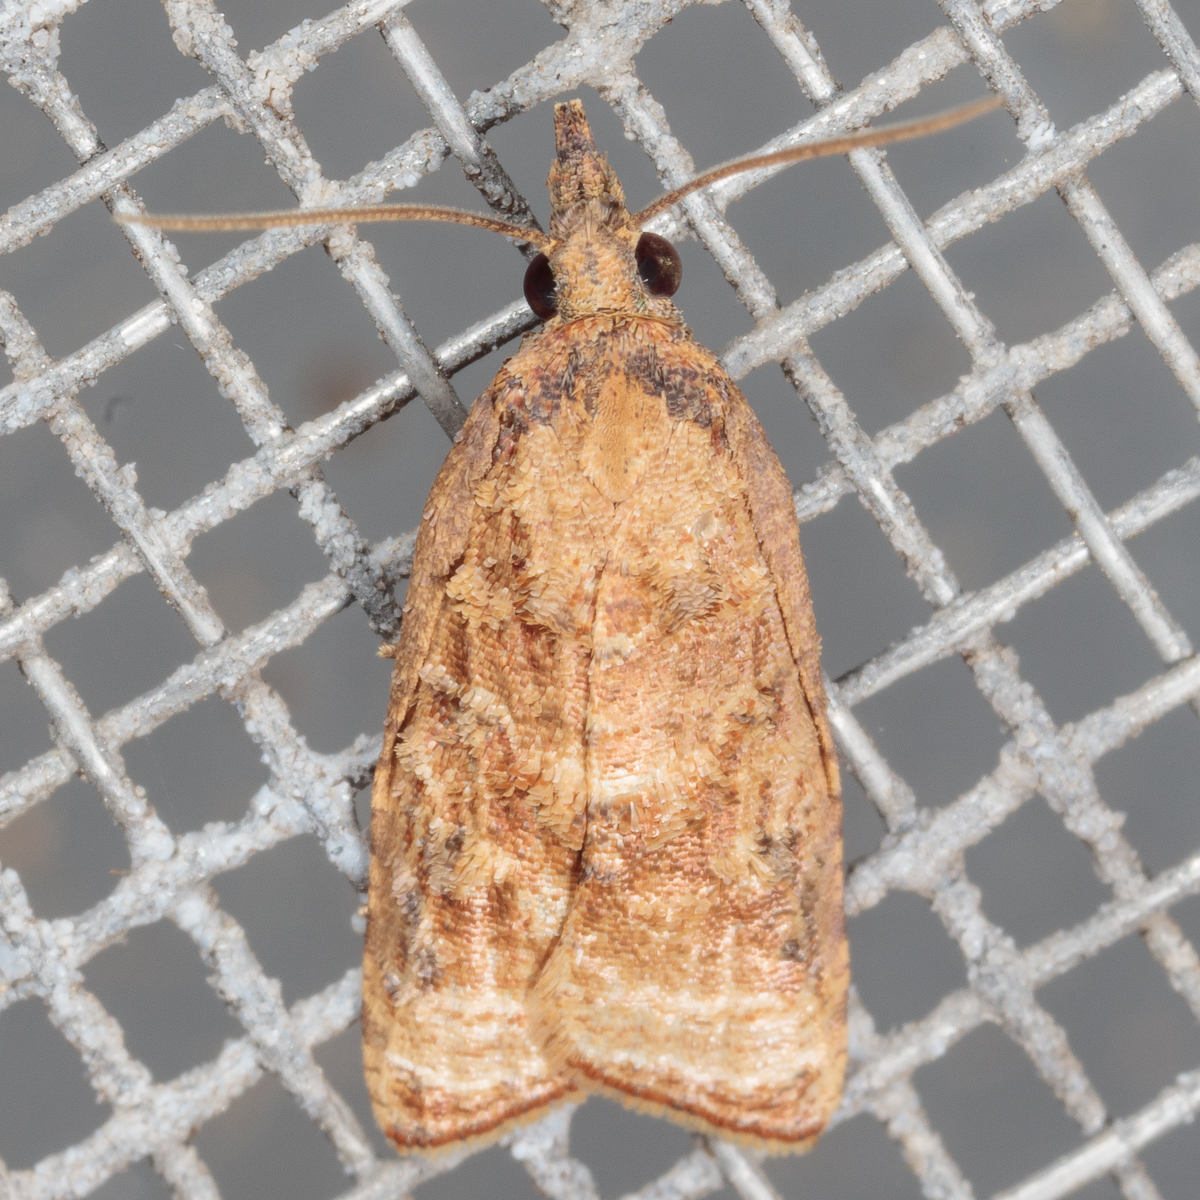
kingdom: Animalia
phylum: Arthropoda
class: Insecta
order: Lepidoptera
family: Tortricidae
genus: Platynota
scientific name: Platynota rostrana
